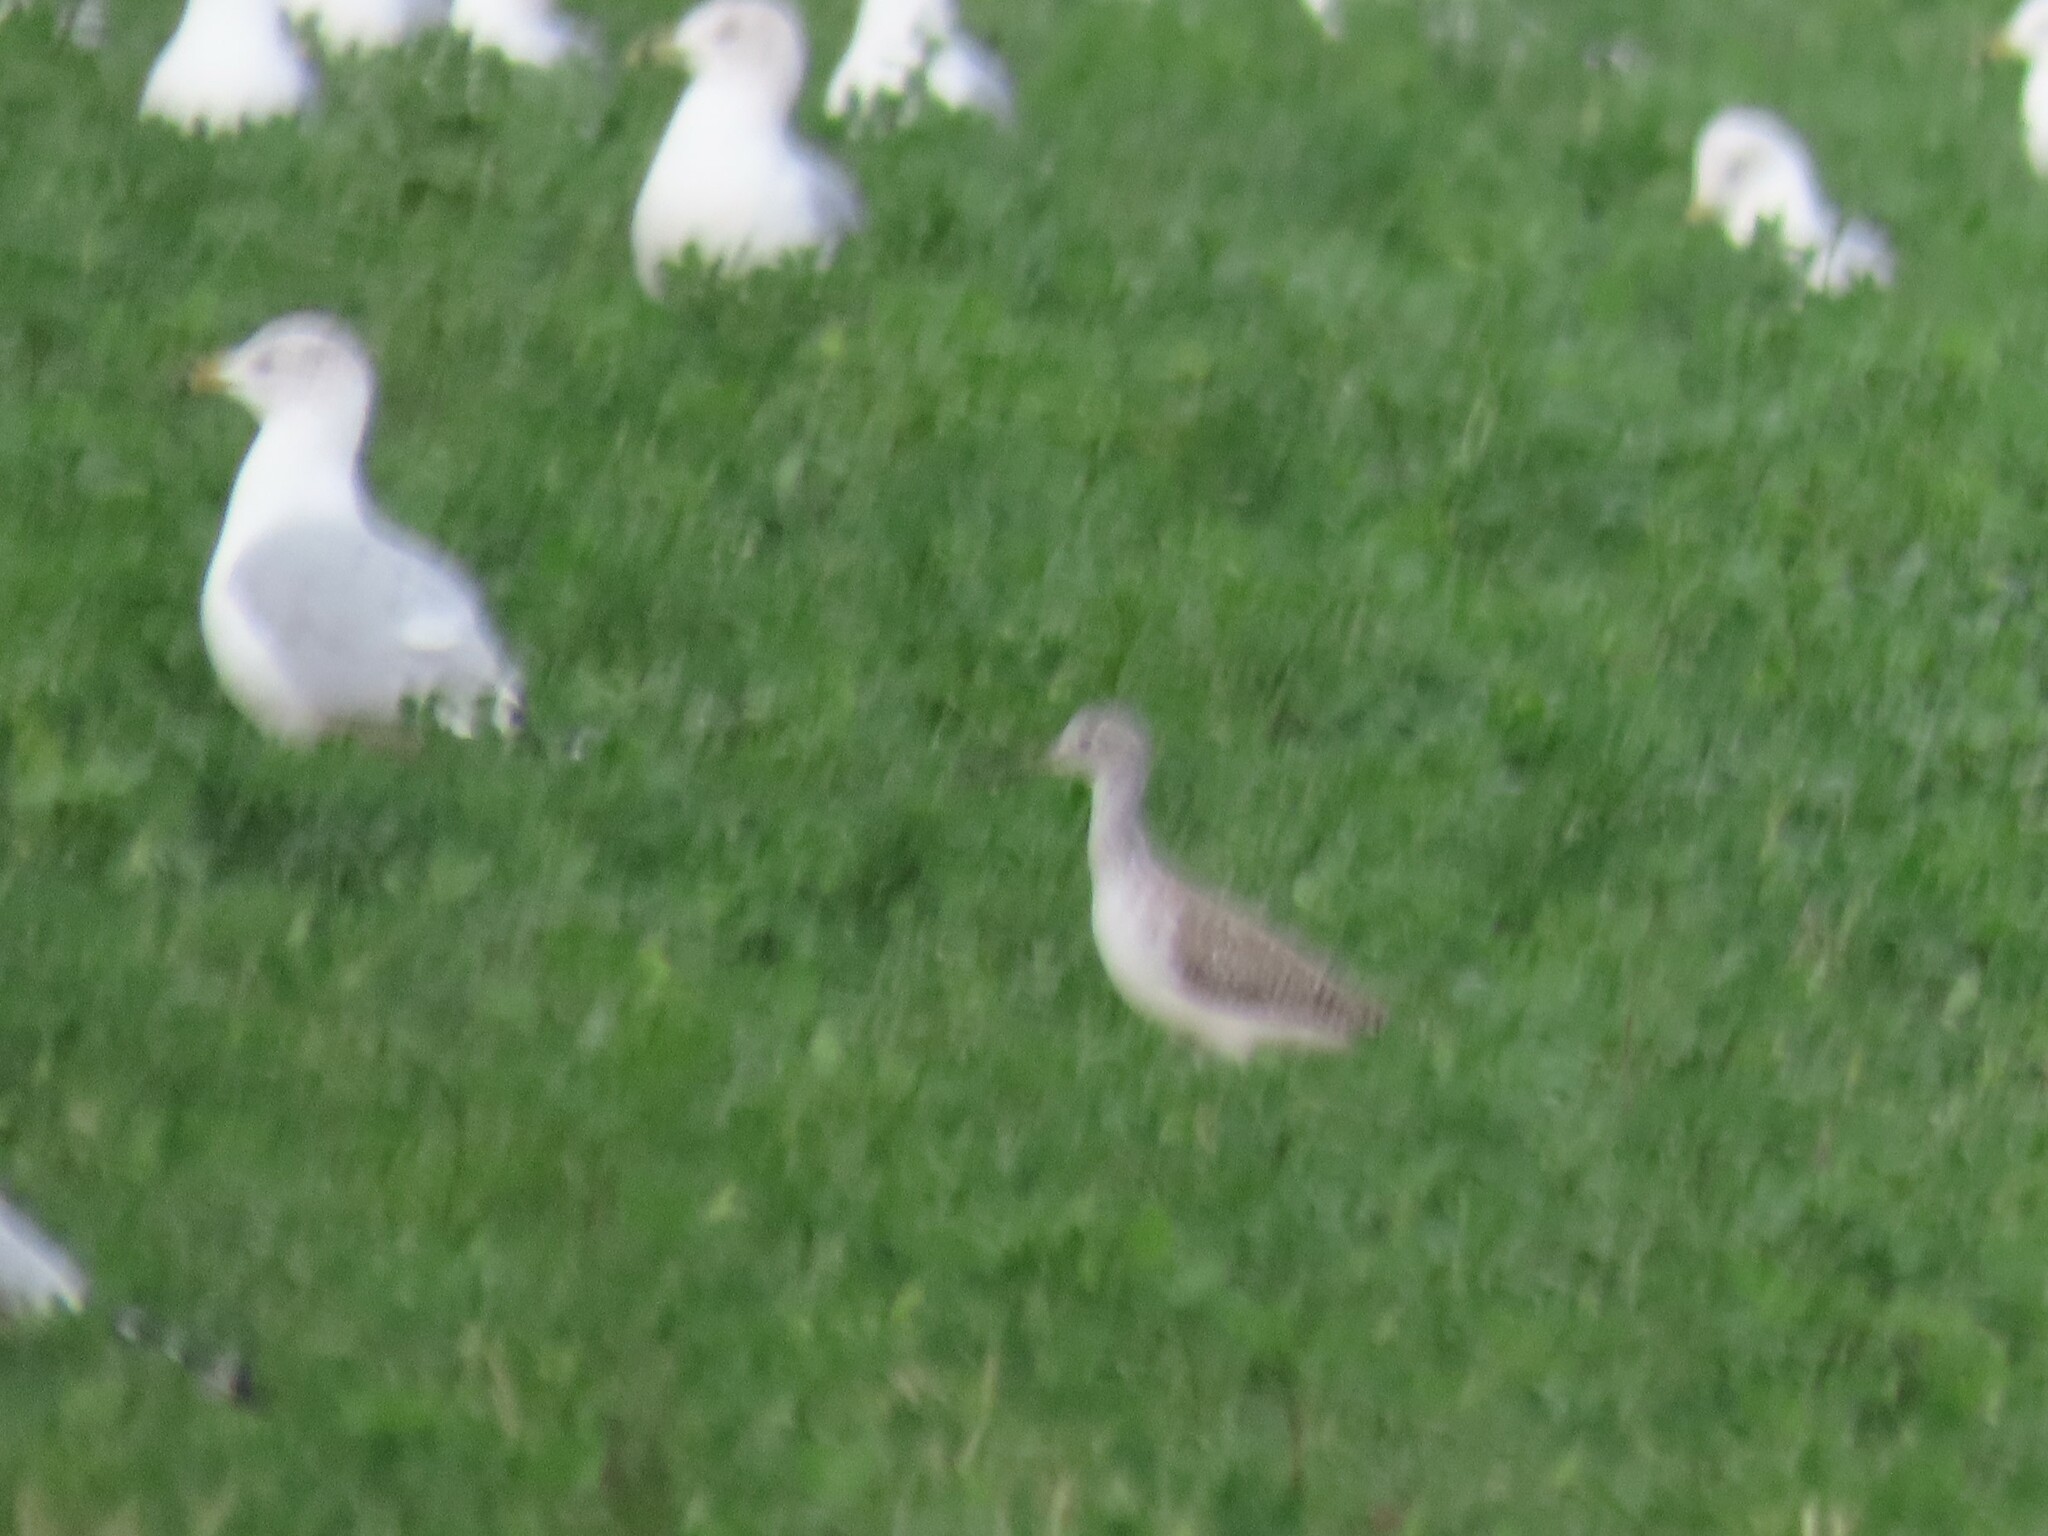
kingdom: Animalia
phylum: Chordata
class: Aves
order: Charadriiformes
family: Scolopacidae
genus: Tringa
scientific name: Tringa melanoleuca
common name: Greater yellowlegs
